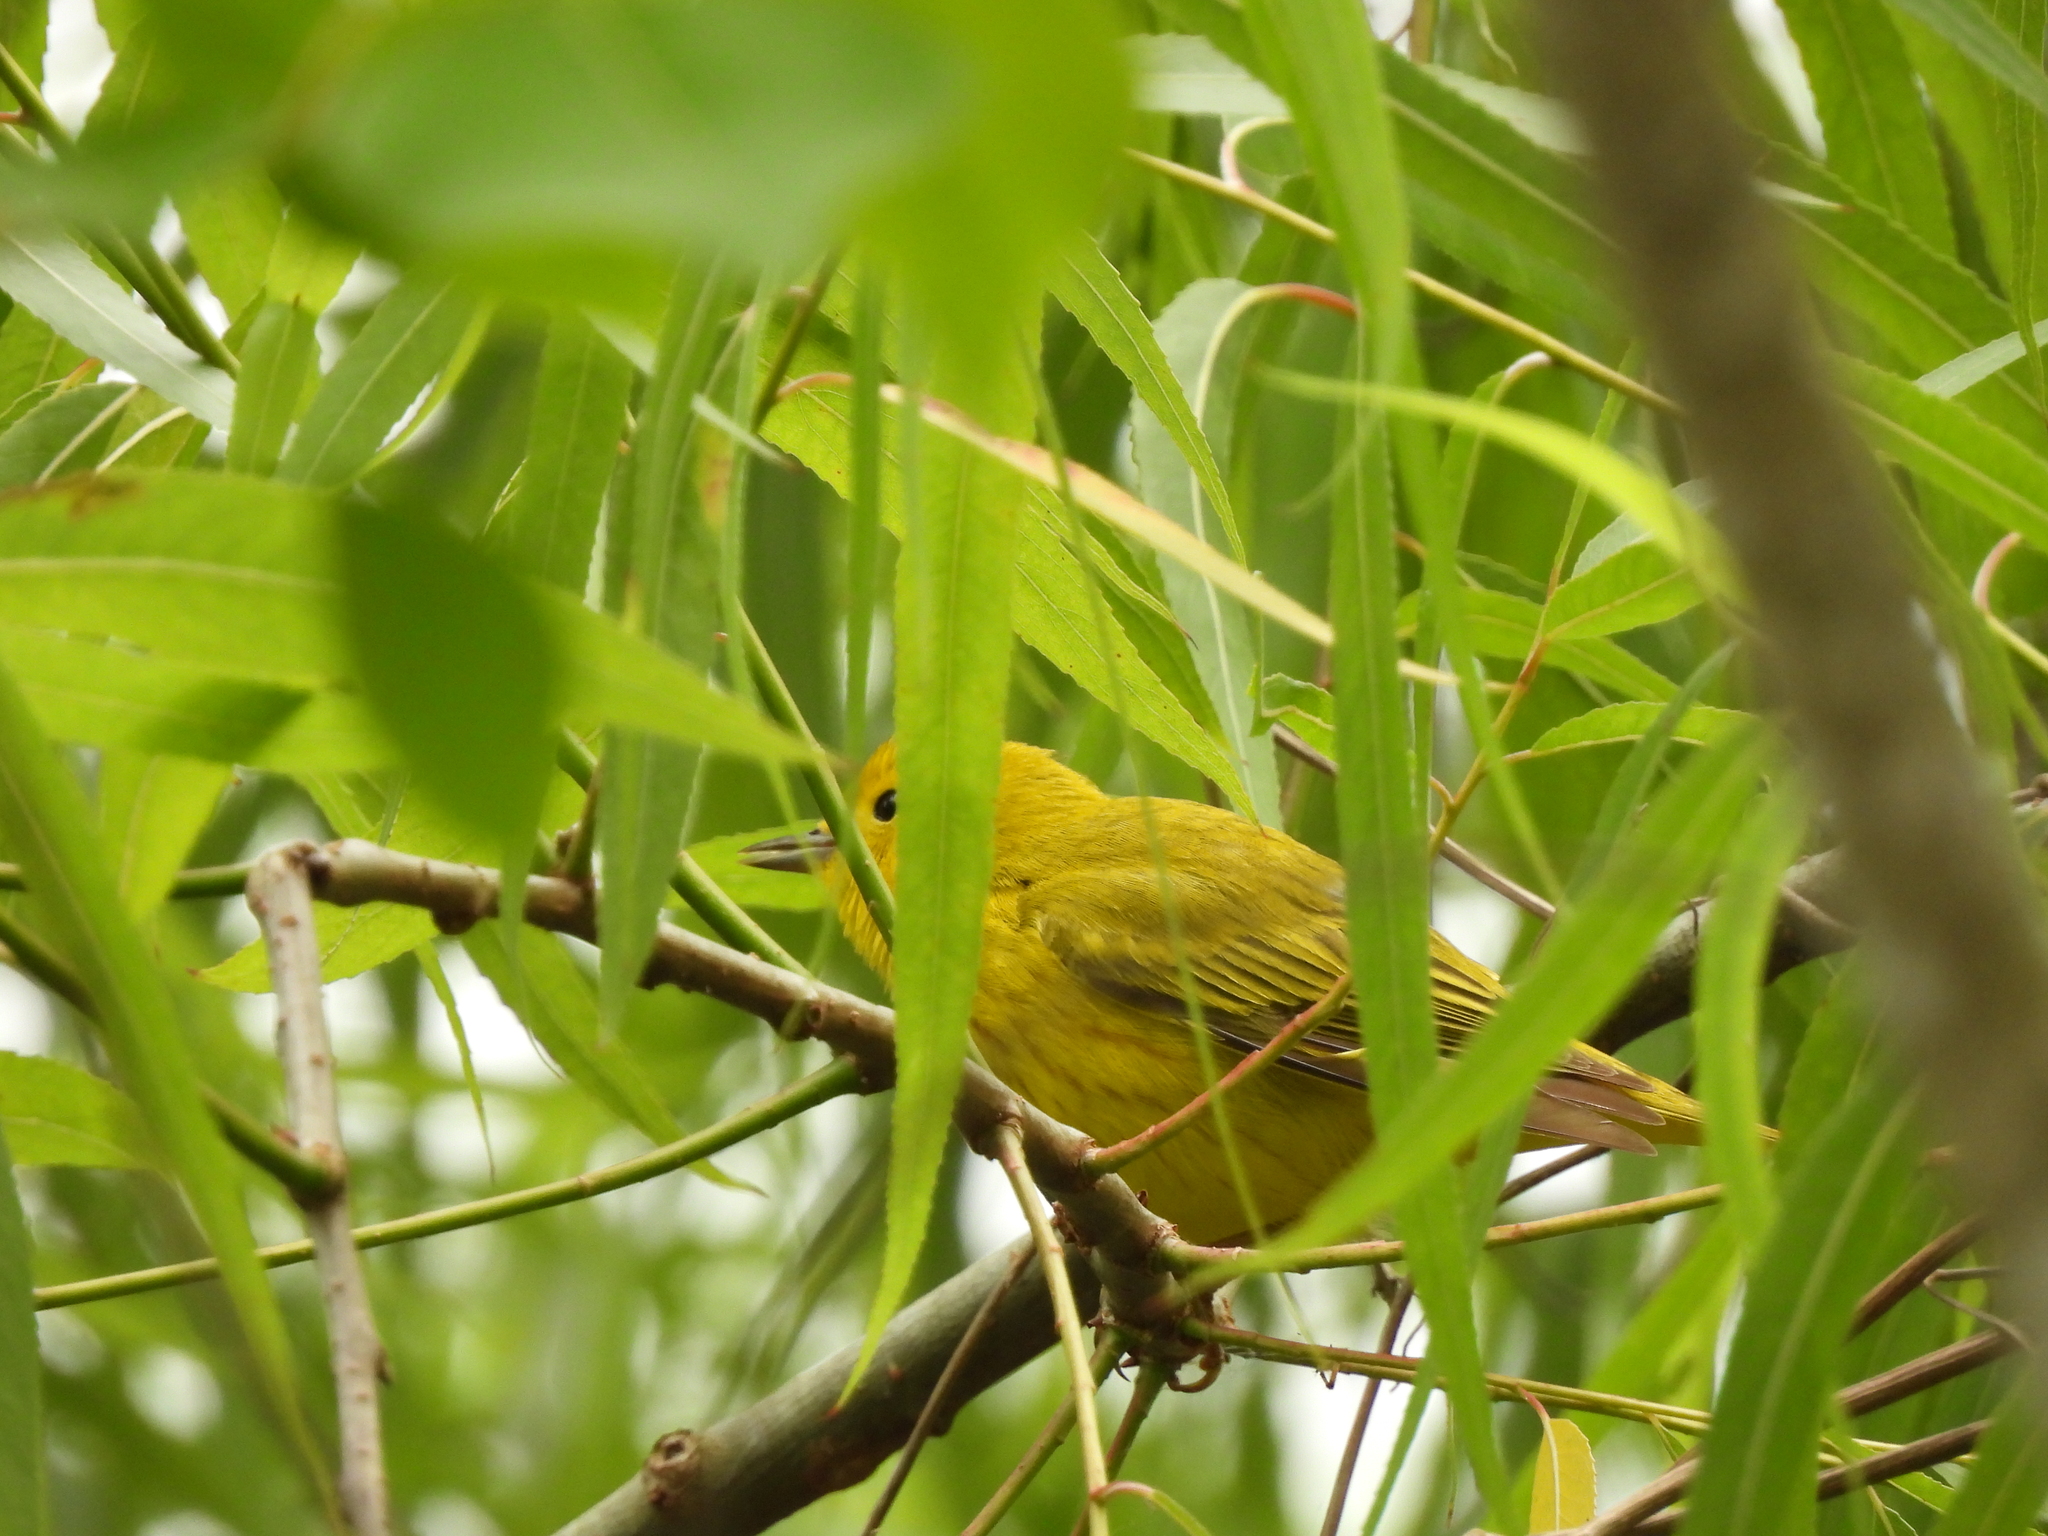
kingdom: Animalia
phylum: Chordata
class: Aves
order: Passeriformes
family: Parulidae
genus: Setophaga
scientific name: Setophaga petechia
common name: Yellow warbler
